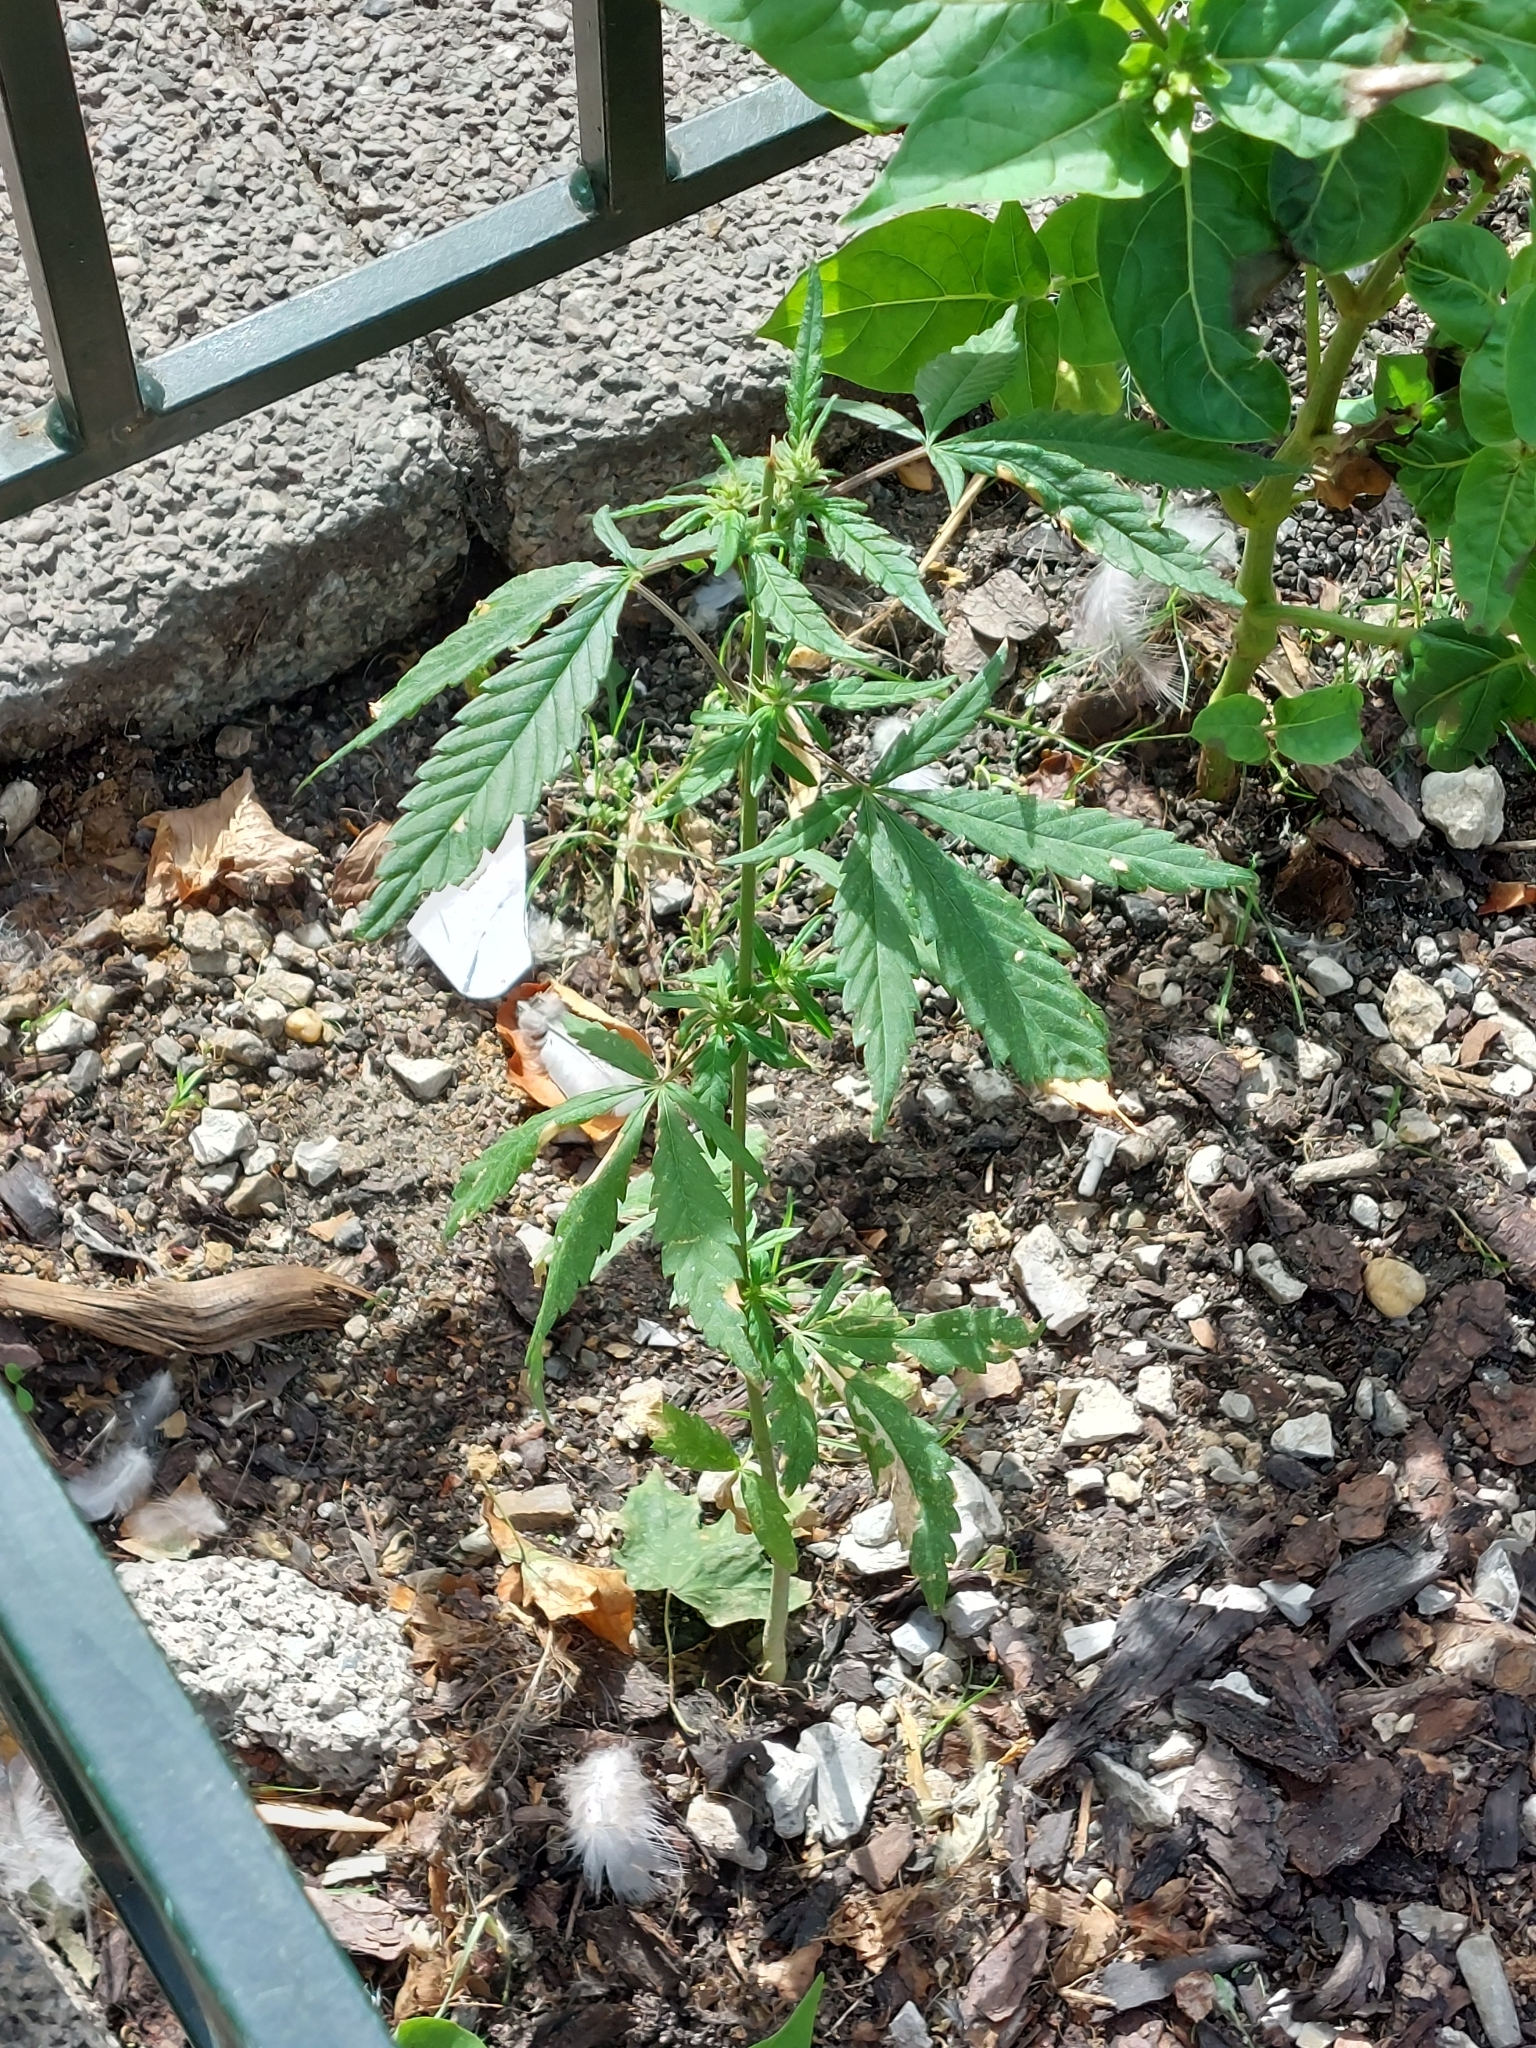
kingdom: Plantae
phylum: Tracheophyta
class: Magnoliopsida
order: Rosales
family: Cannabaceae
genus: Cannabis
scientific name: Cannabis sativa
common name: Hemp
